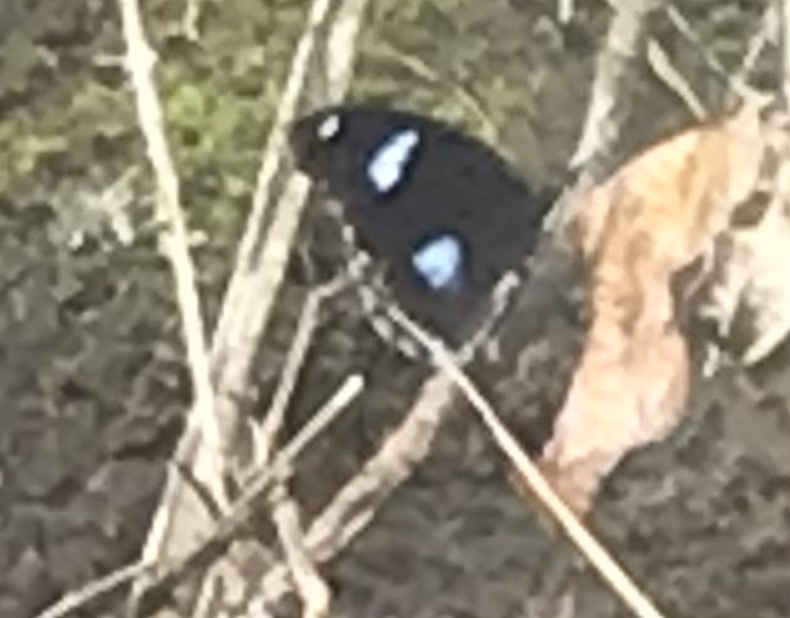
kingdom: Animalia
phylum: Arthropoda
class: Insecta
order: Lepidoptera
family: Nymphalidae
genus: Hypolimnas
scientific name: Hypolimnas bolina
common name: Great eggfly
